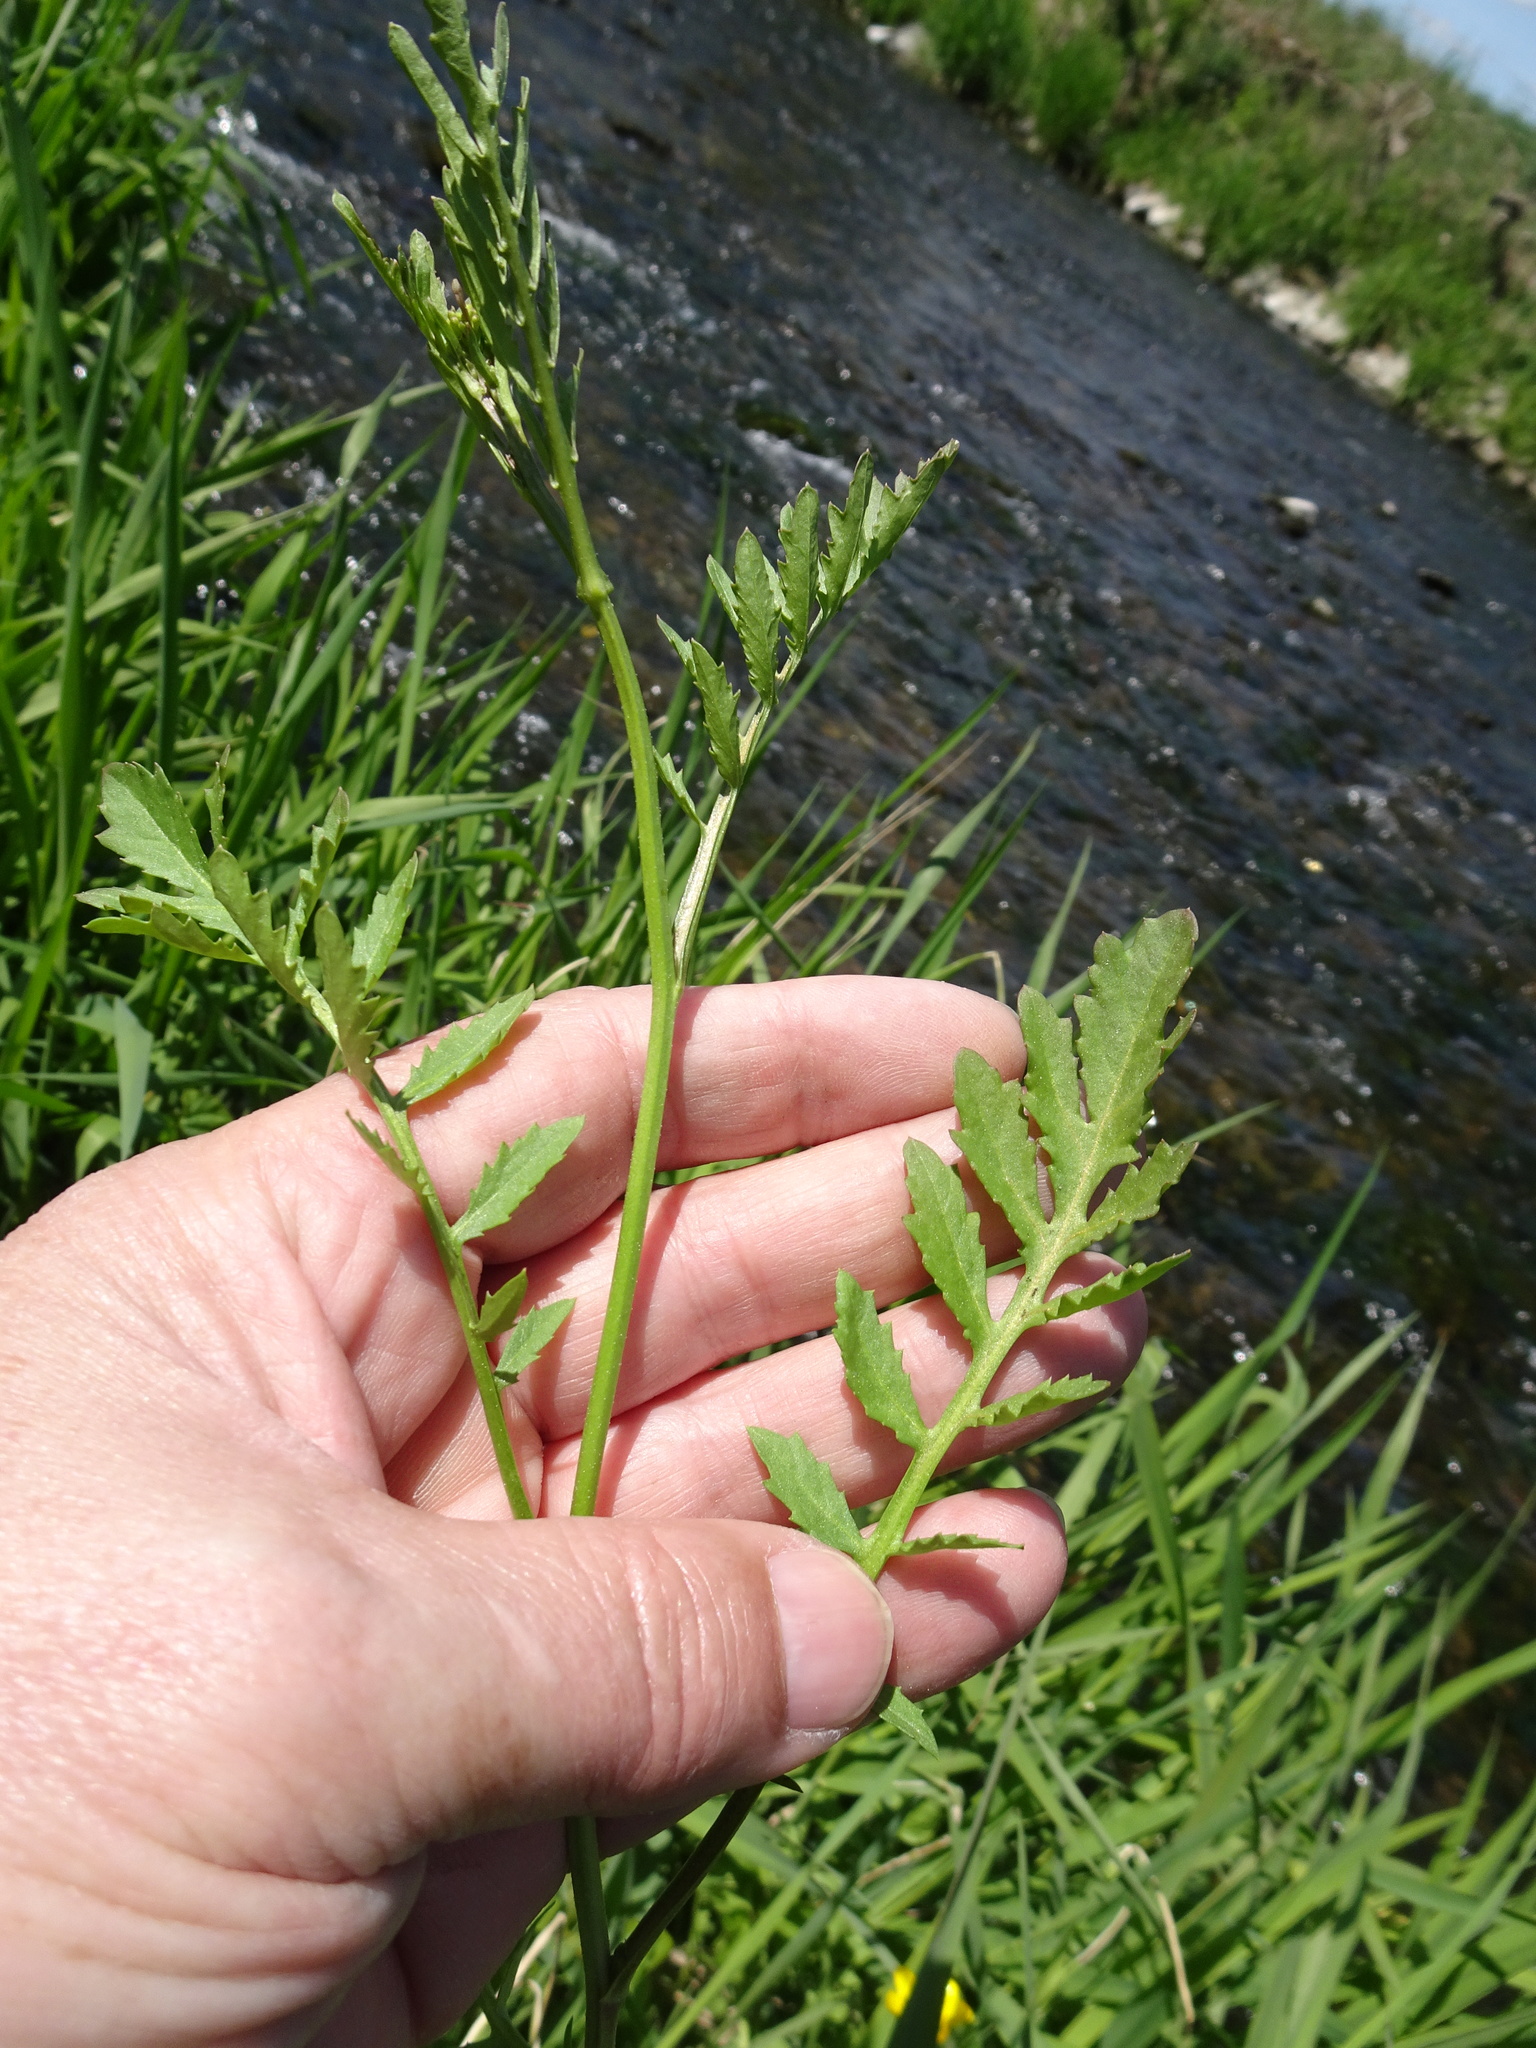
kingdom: Plantae
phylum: Tracheophyta
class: Magnoliopsida
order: Brassicales
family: Brassicaceae
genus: Rorippa
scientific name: Rorippa palustris
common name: Marsh yellow-cress
